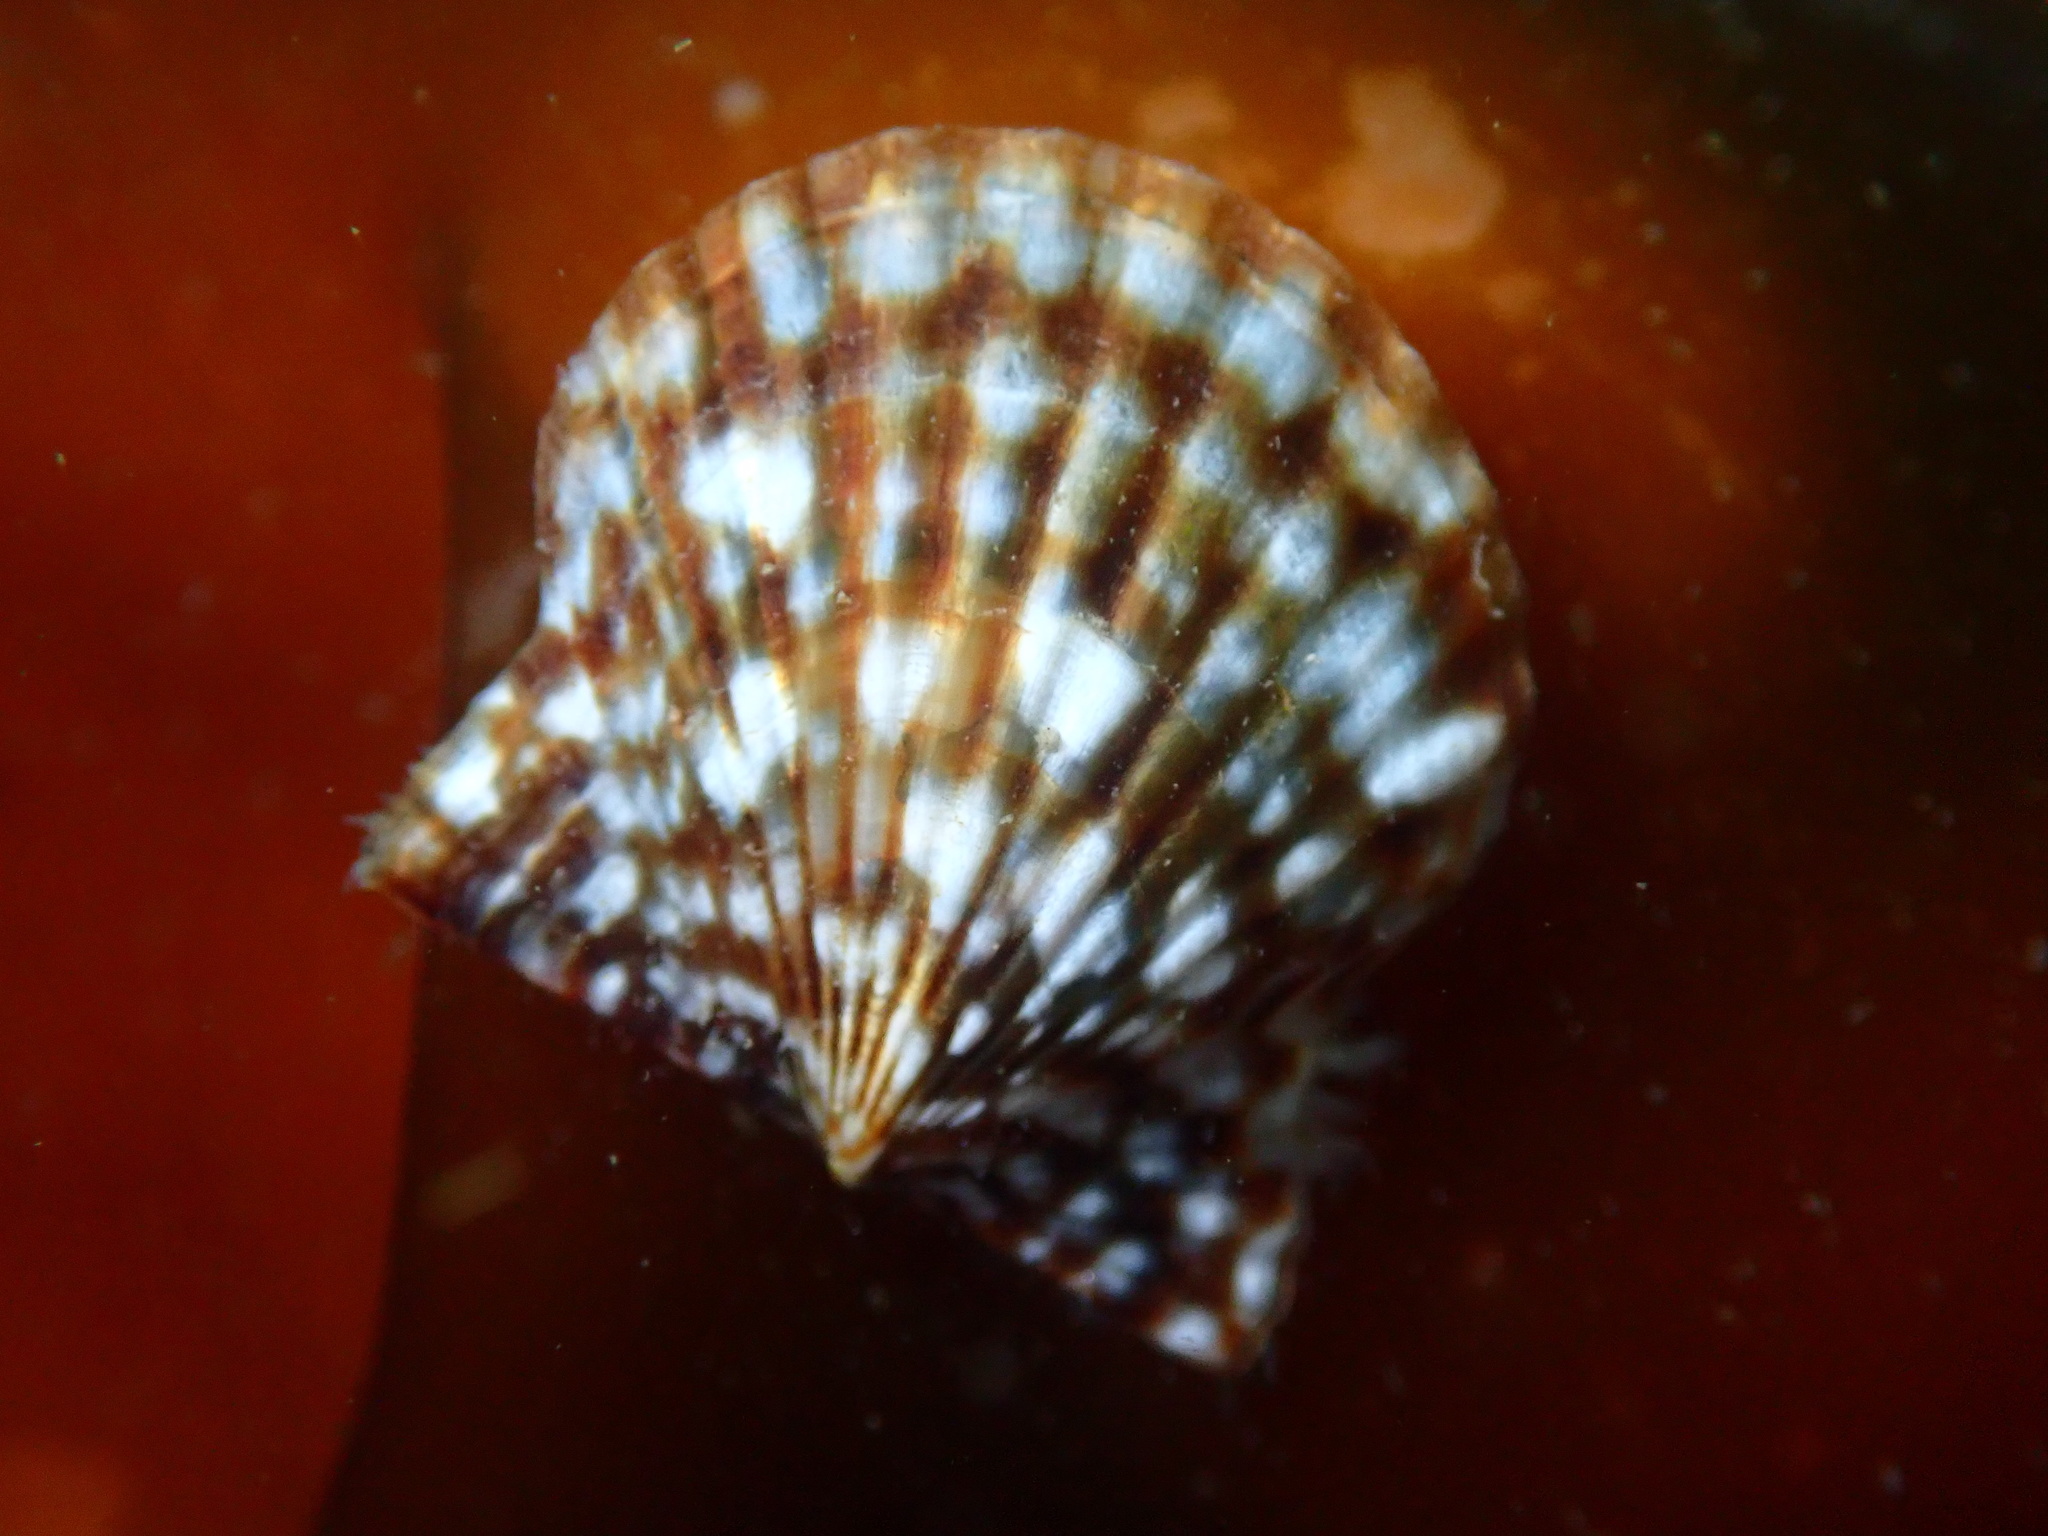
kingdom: Animalia
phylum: Mollusca
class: Bivalvia
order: Pectinida
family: Pectinidae
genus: Leptopecten
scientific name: Leptopecten latiauratus
